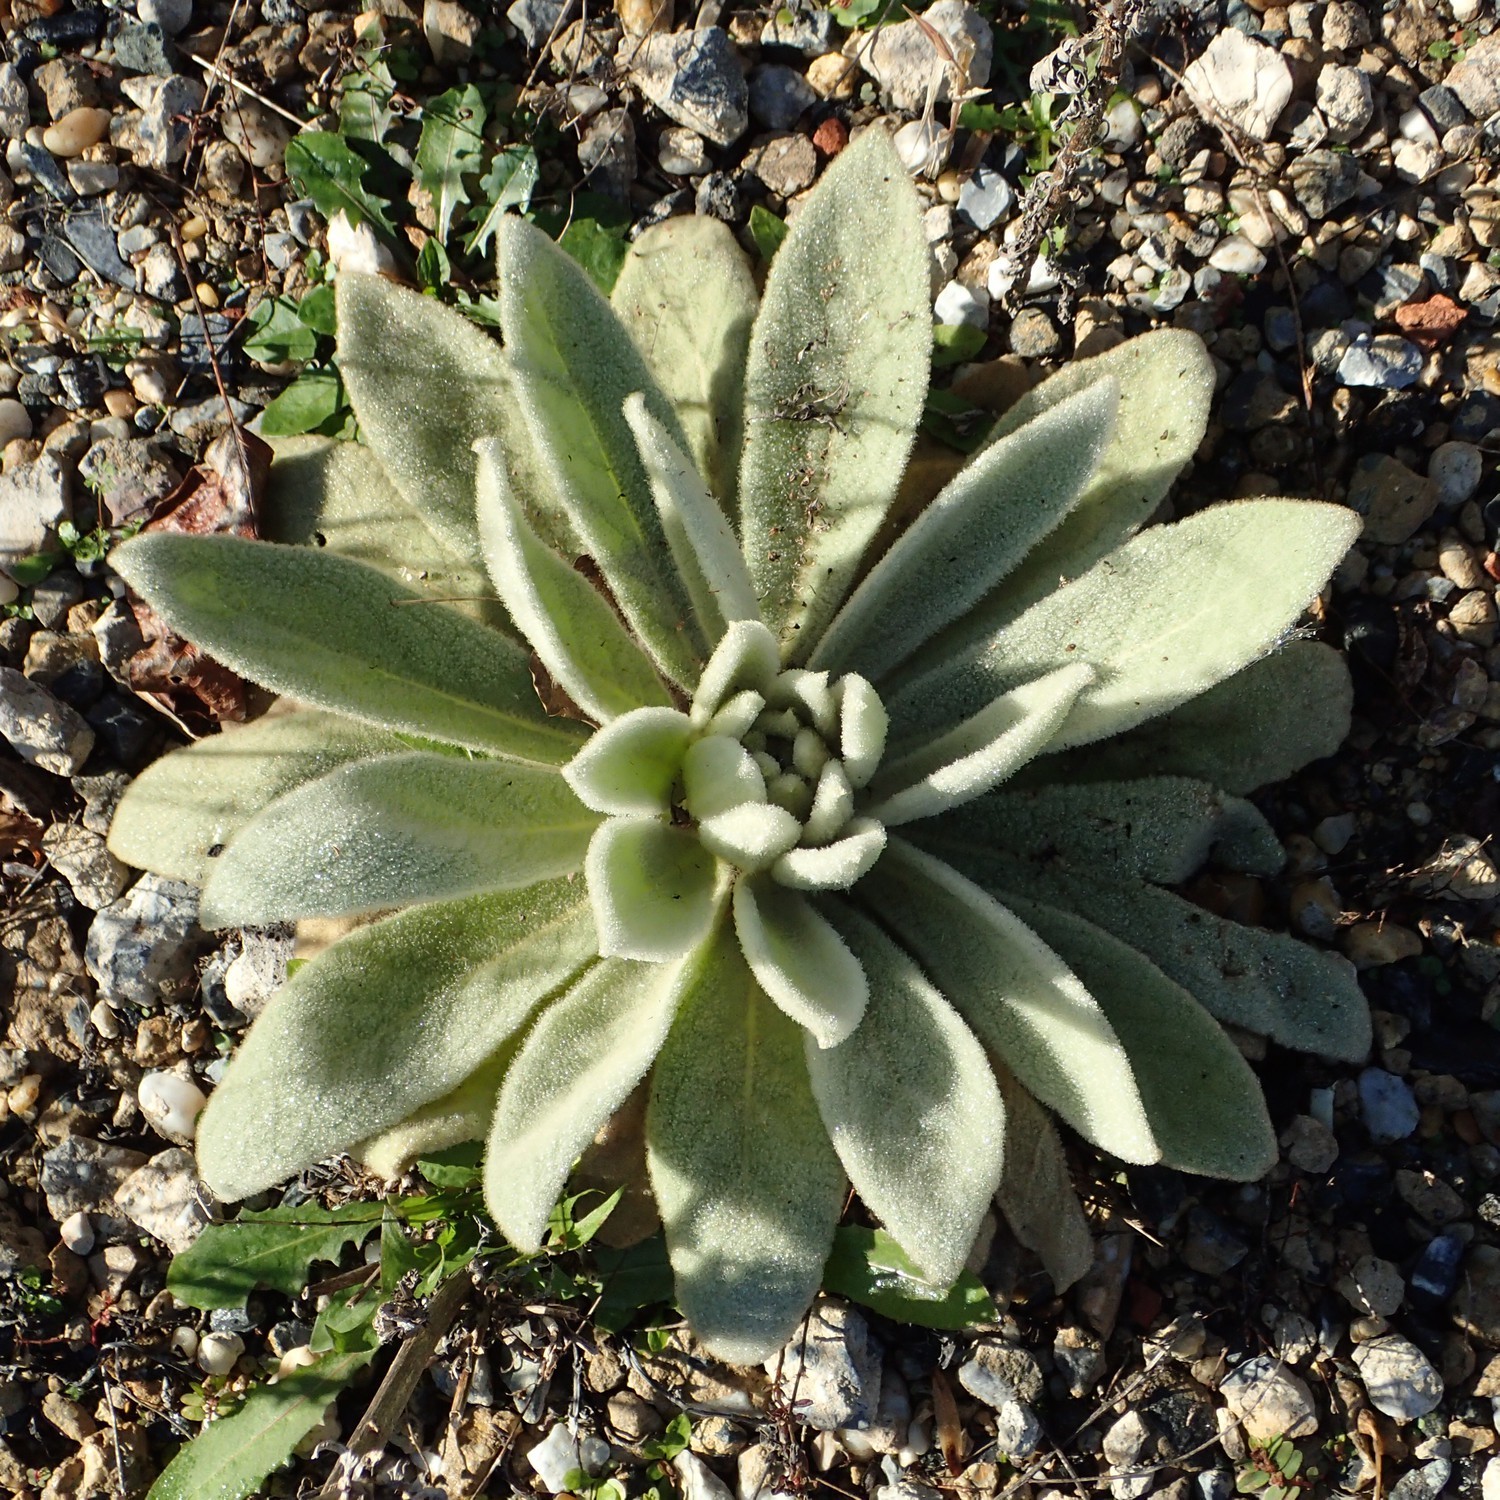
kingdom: Plantae
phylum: Tracheophyta
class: Magnoliopsida
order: Lamiales
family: Scrophulariaceae
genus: Verbascum
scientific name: Verbascum thapsus
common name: Common mullein
